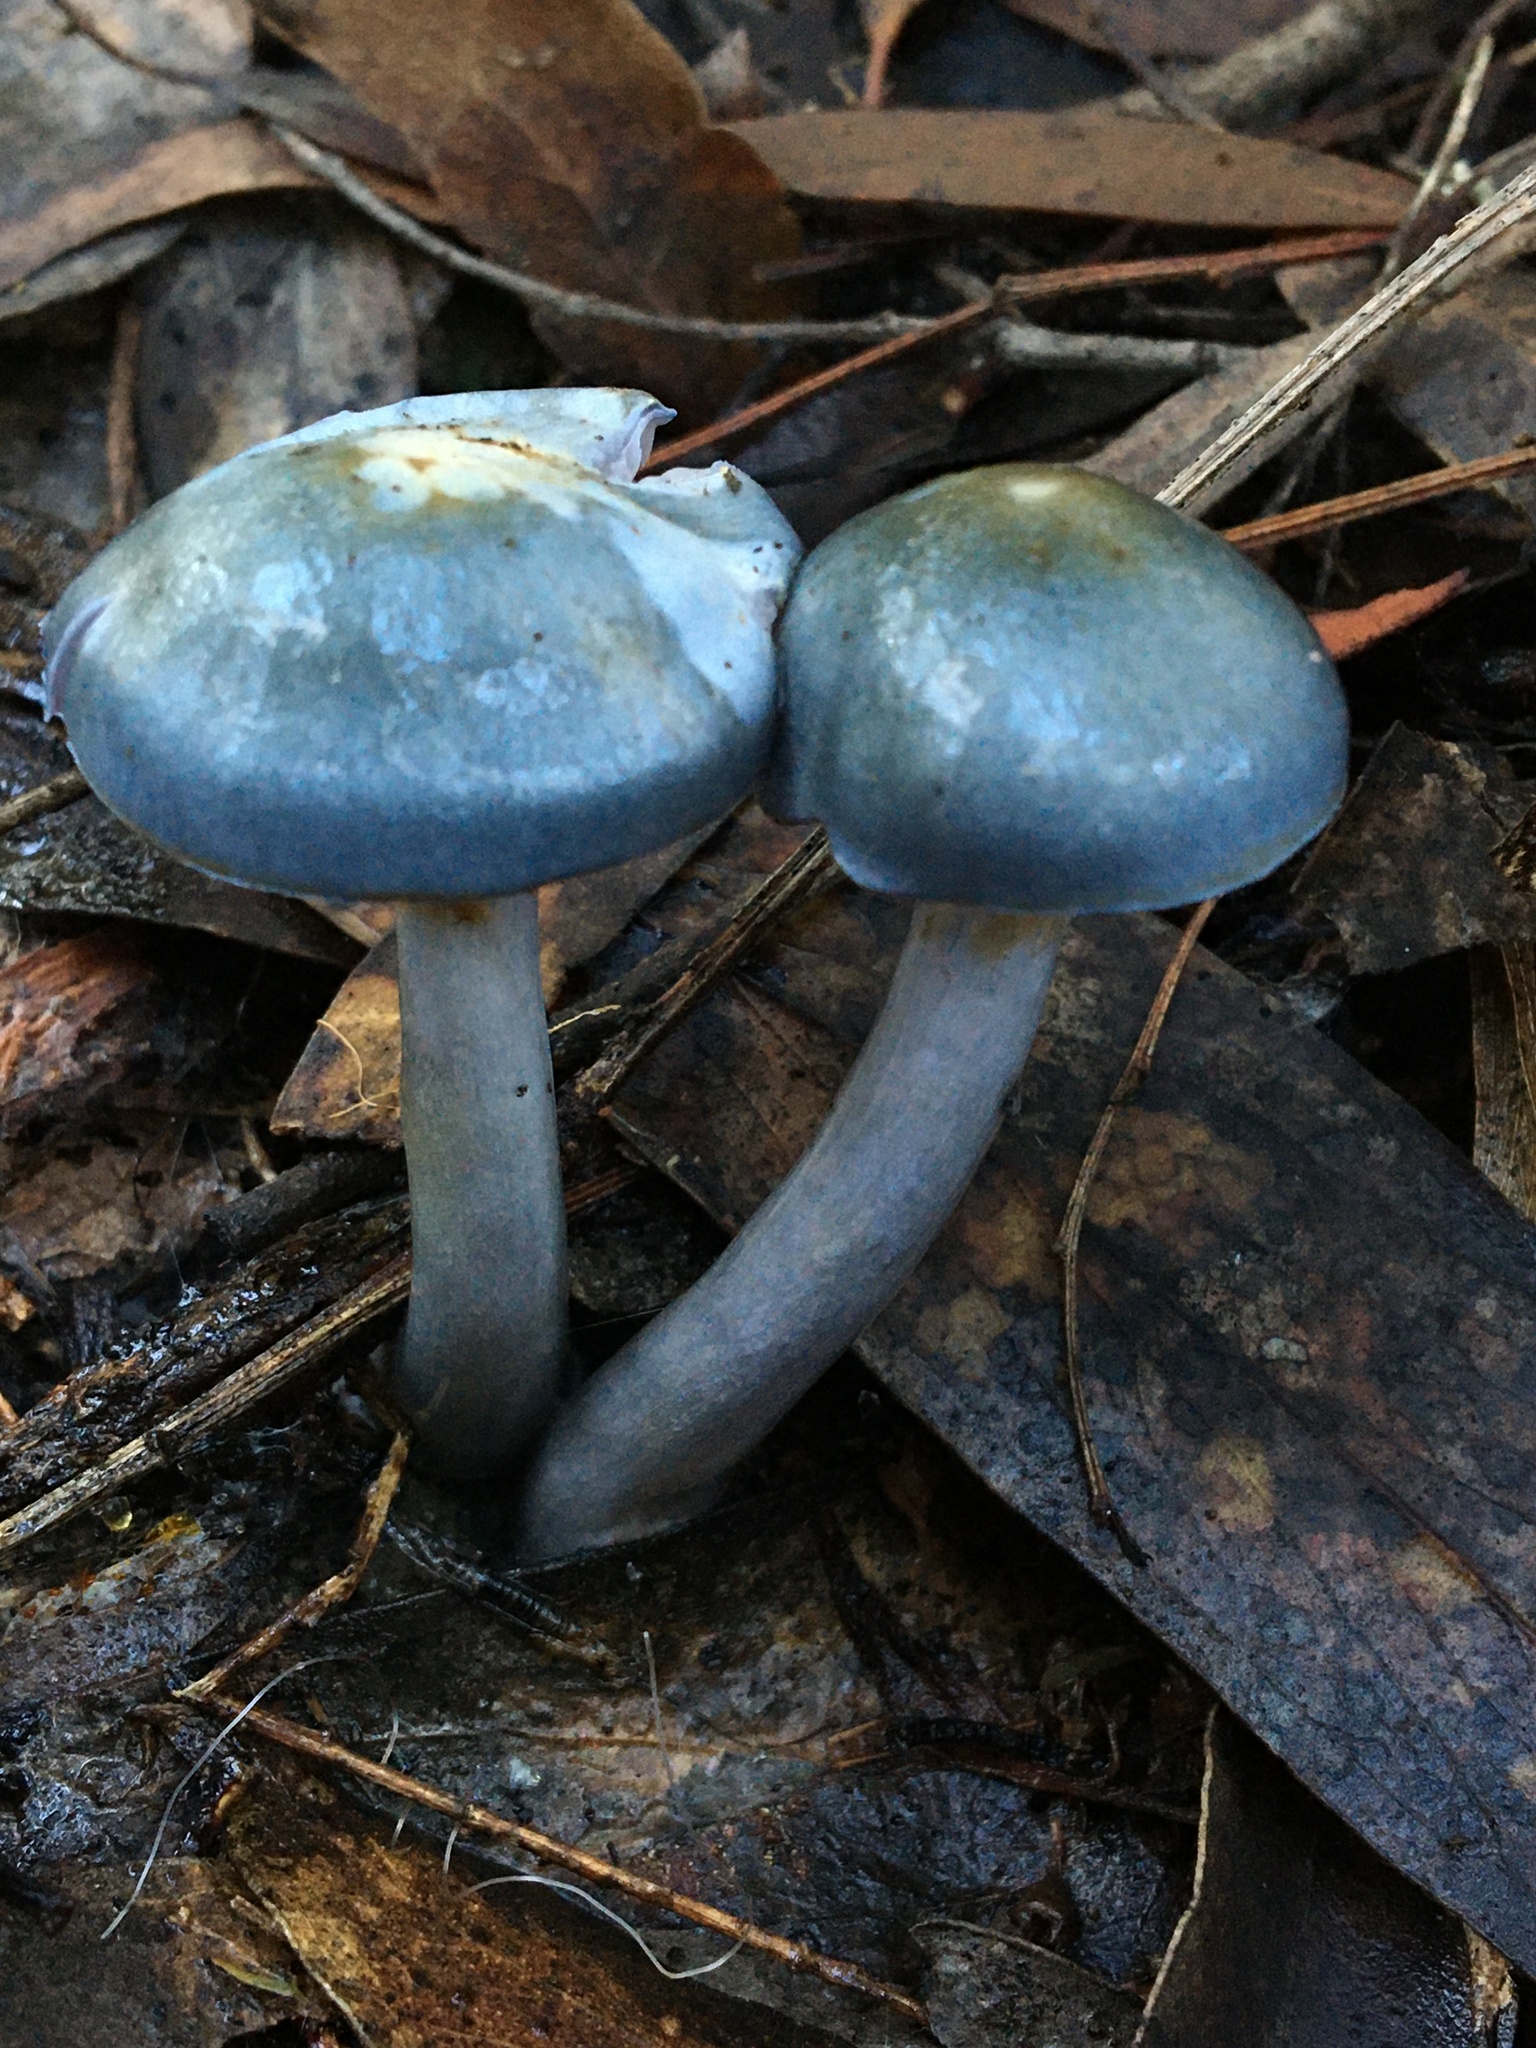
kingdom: Fungi
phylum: Basidiomycota
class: Agaricomycetes
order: Agaricales
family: Cortinariaceae
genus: Cortinarius
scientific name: Cortinarius rotundisporus
